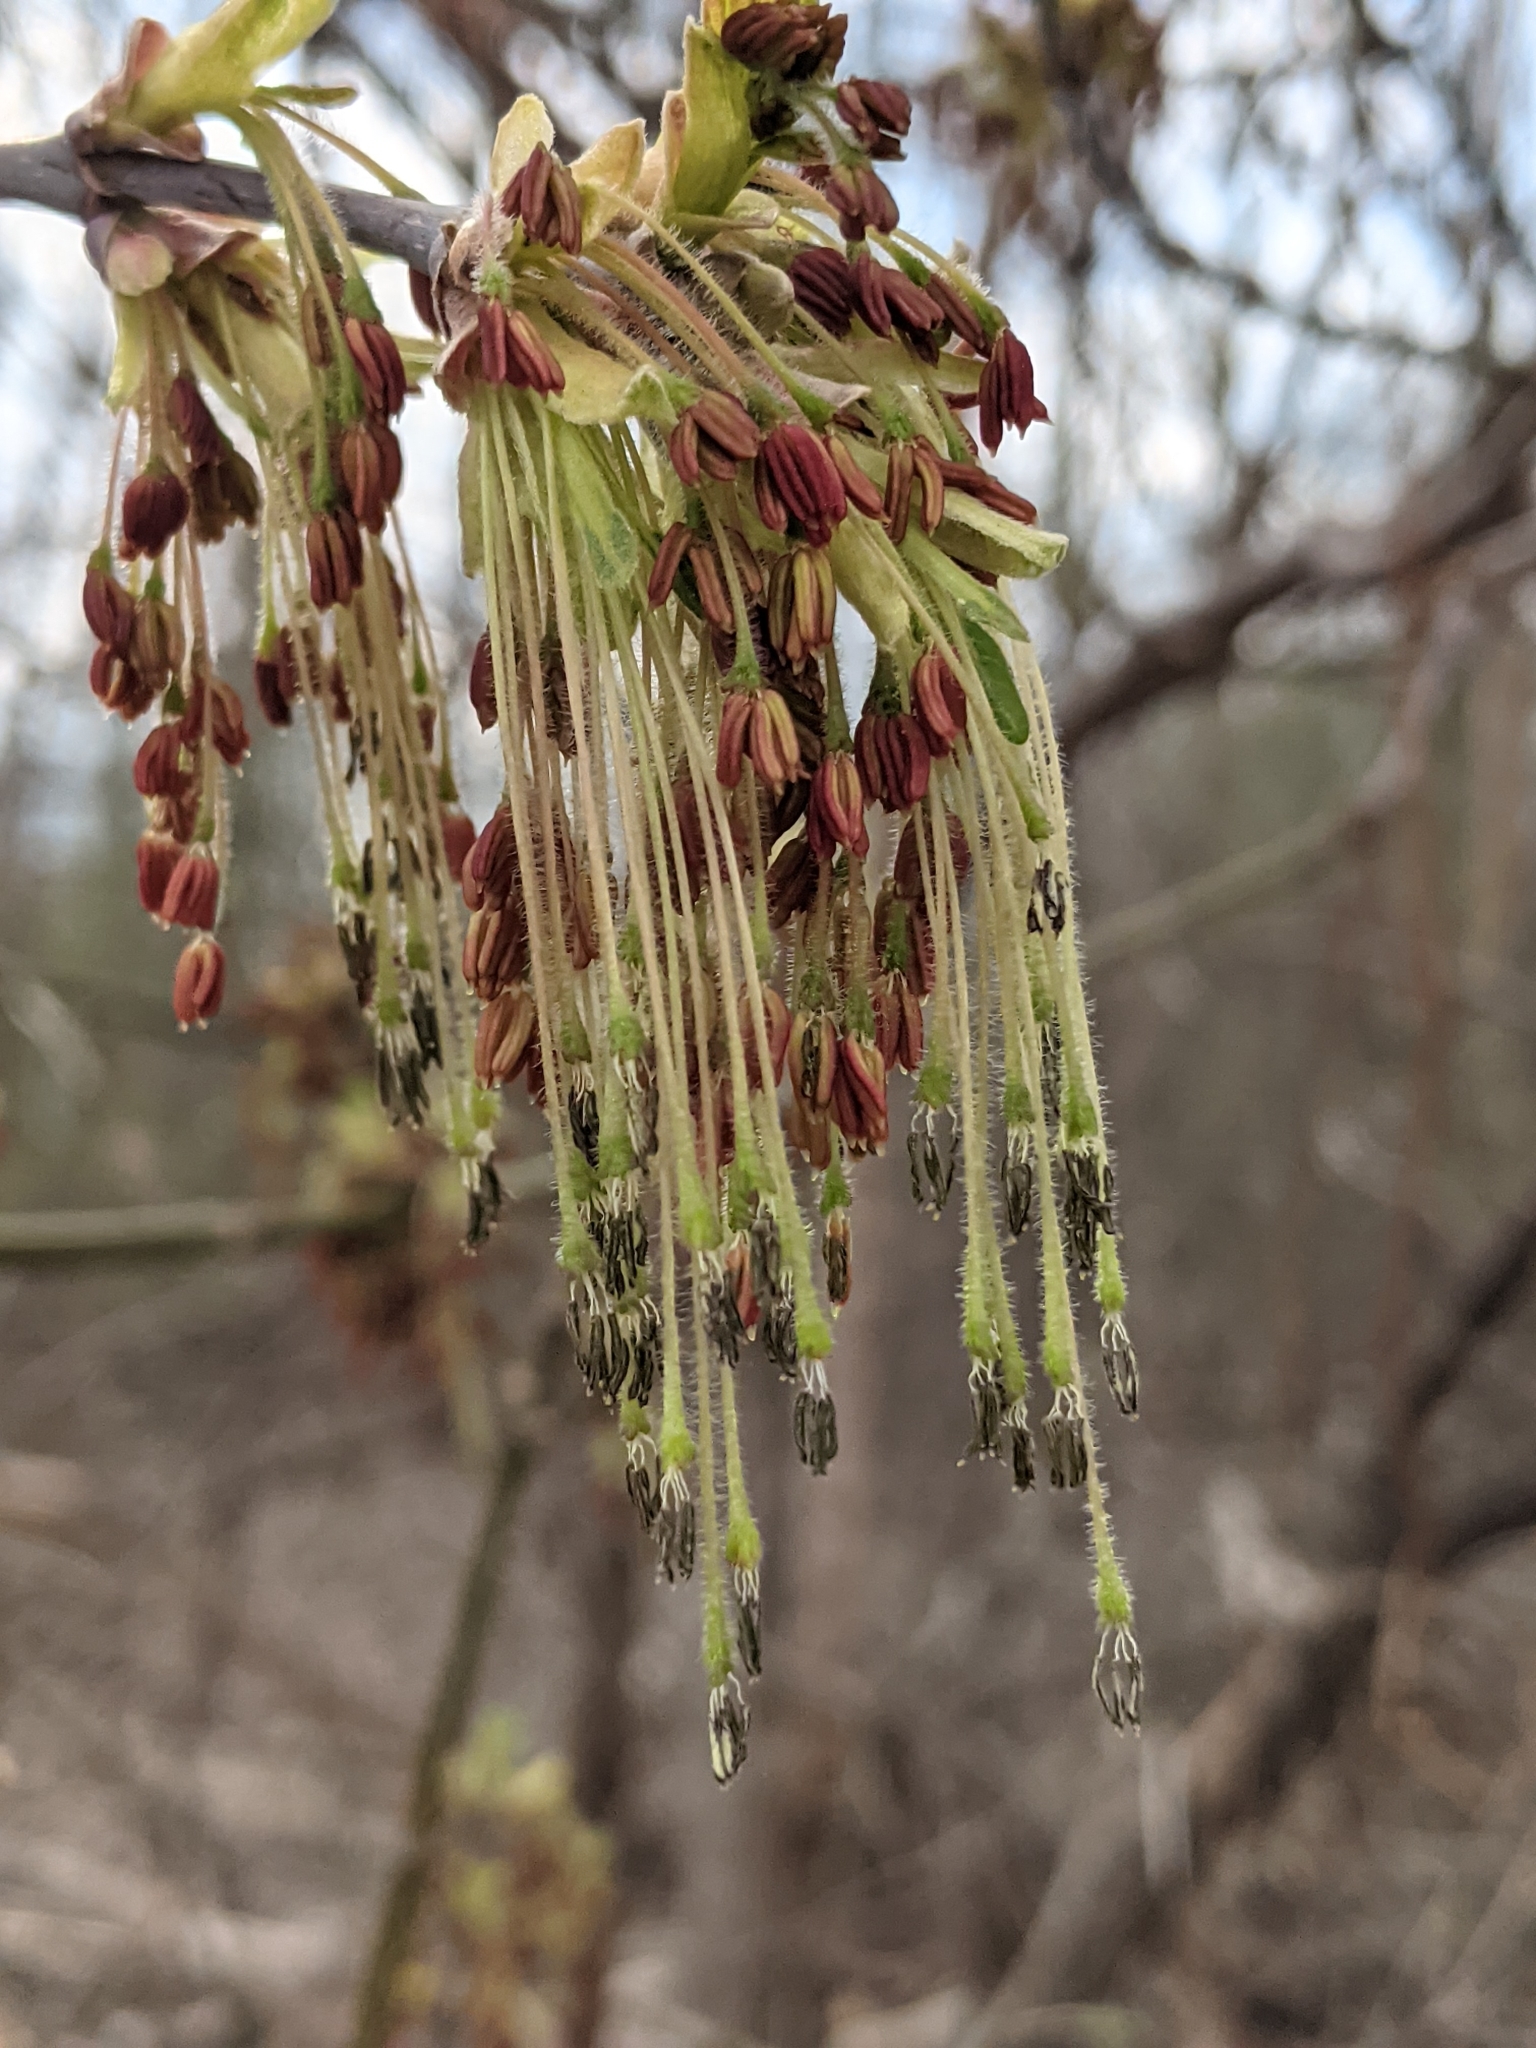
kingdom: Plantae
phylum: Tracheophyta
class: Magnoliopsida
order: Sapindales
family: Sapindaceae
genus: Acer
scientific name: Acer negundo
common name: Ashleaf maple
